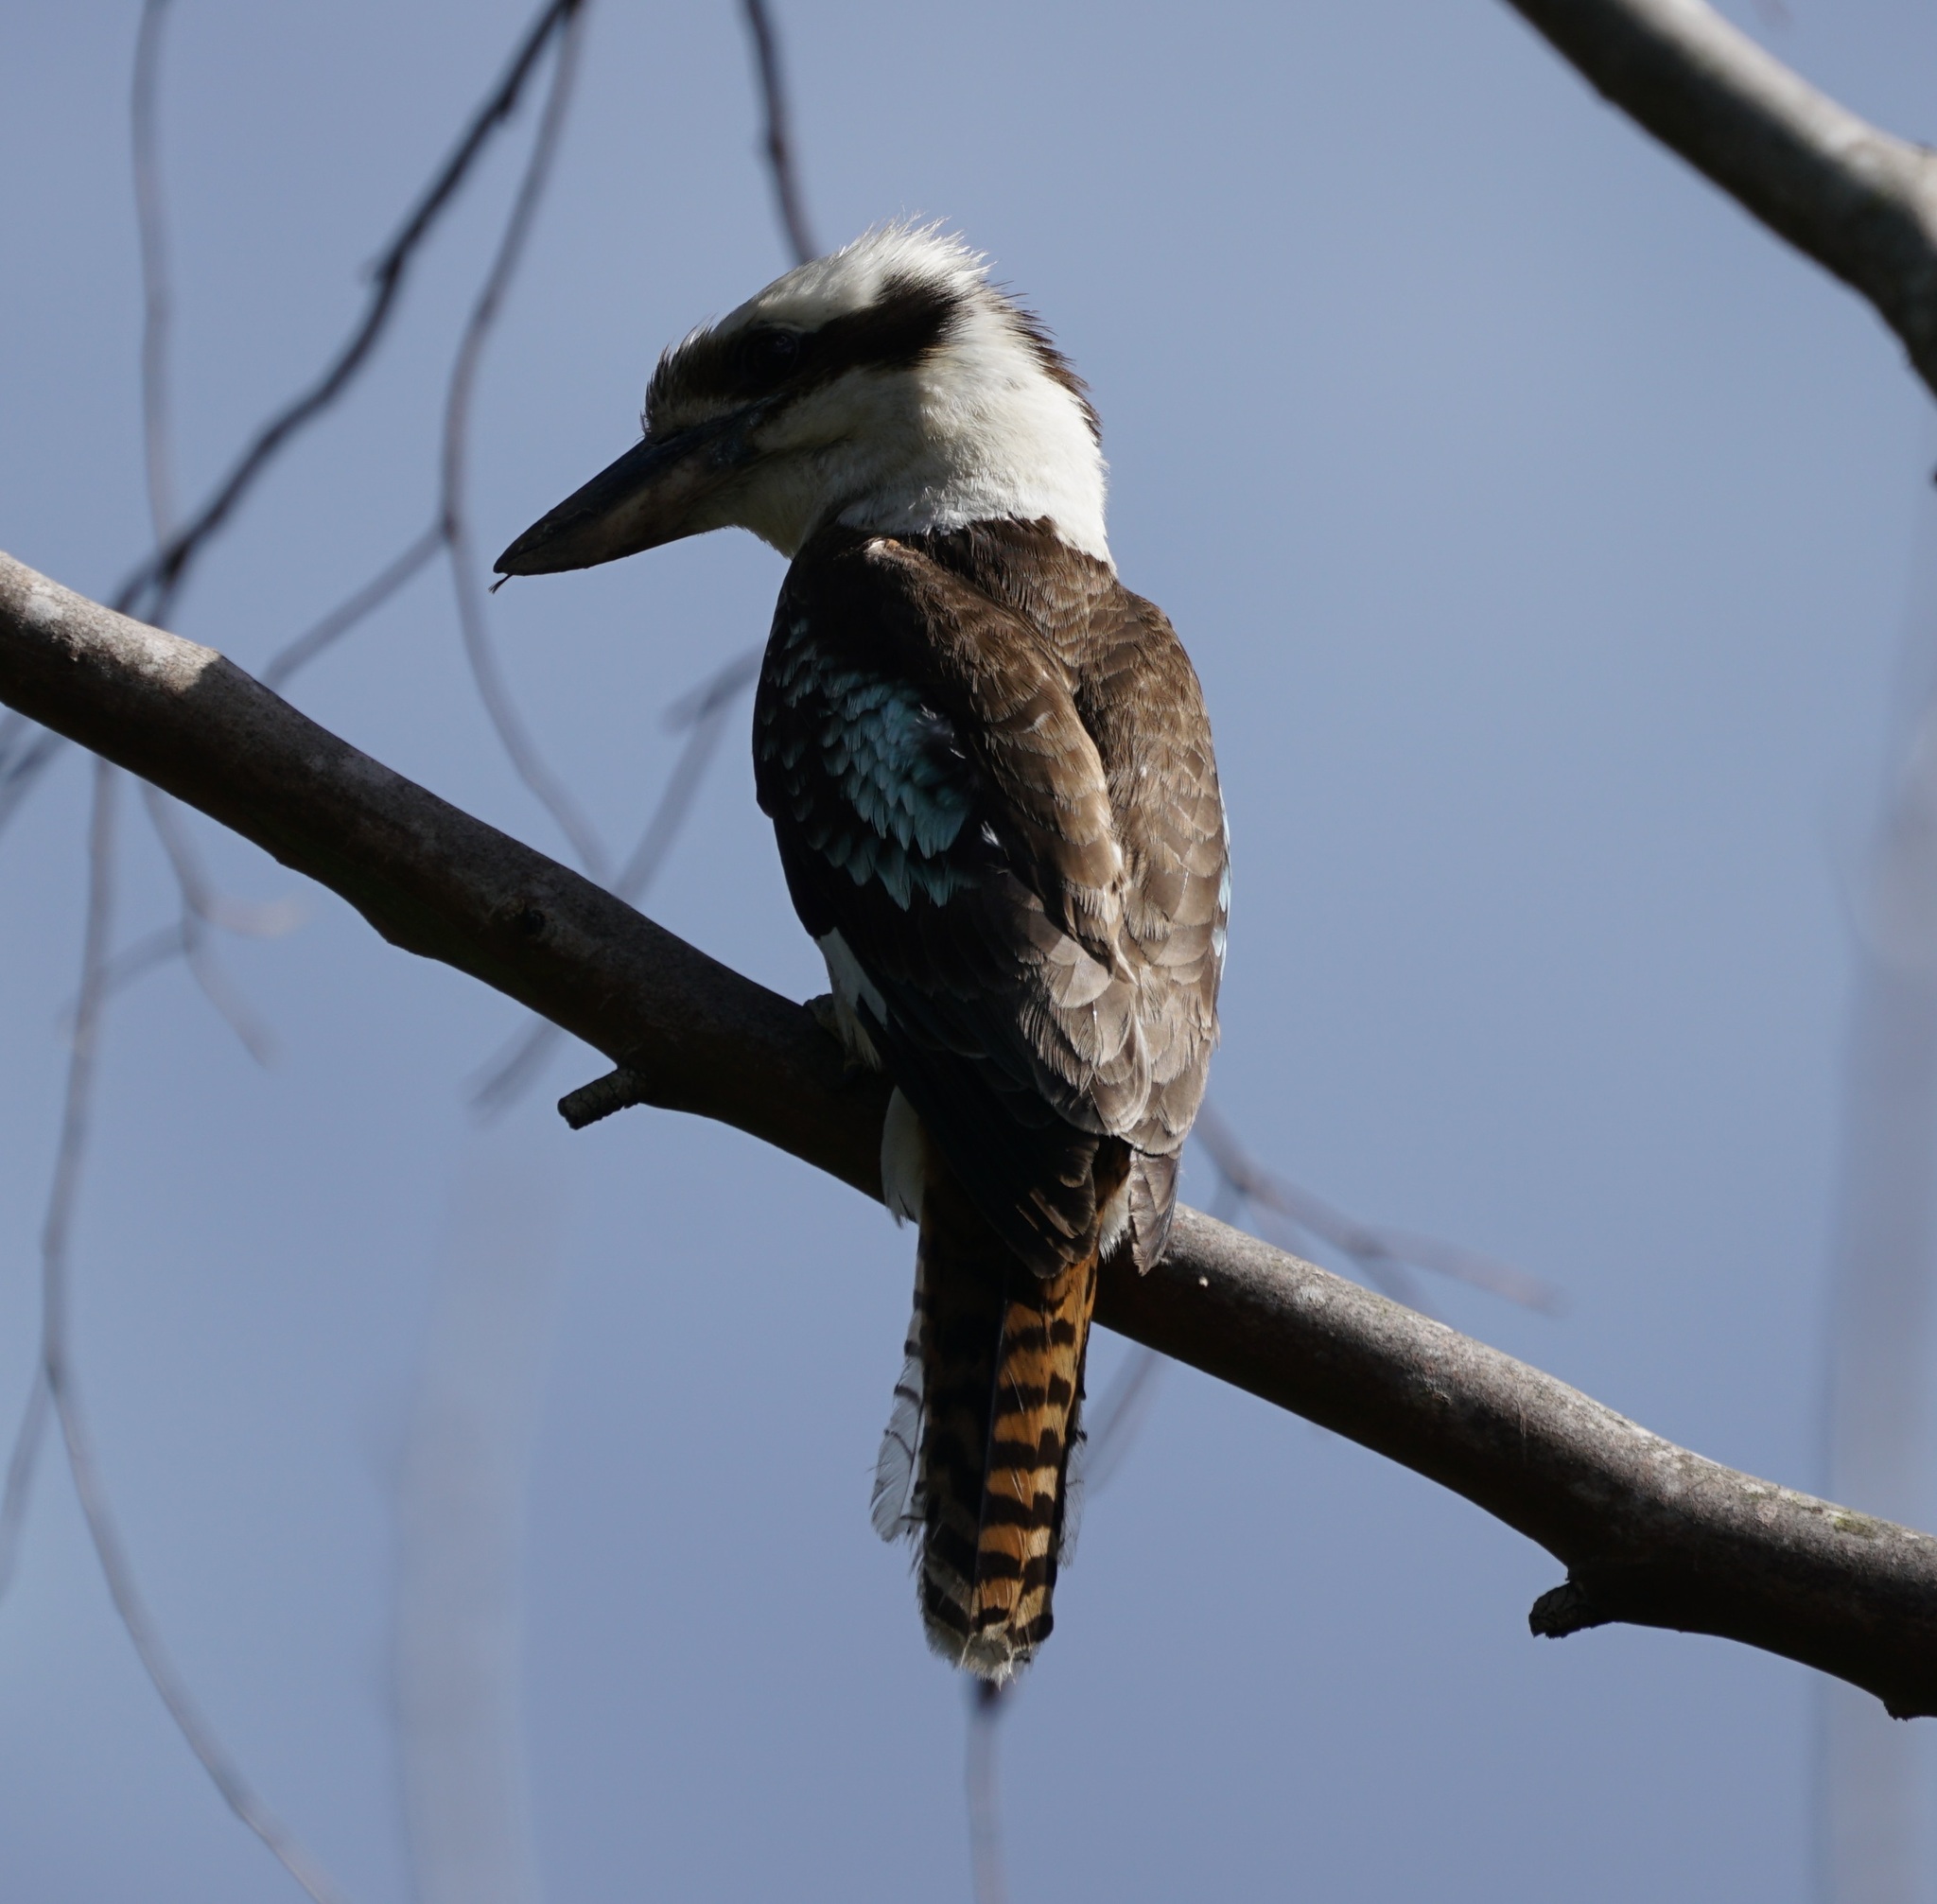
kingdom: Animalia
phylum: Chordata
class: Aves
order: Coraciiformes
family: Alcedinidae
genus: Dacelo
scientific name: Dacelo novaeguineae
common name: Laughing kookaburra
